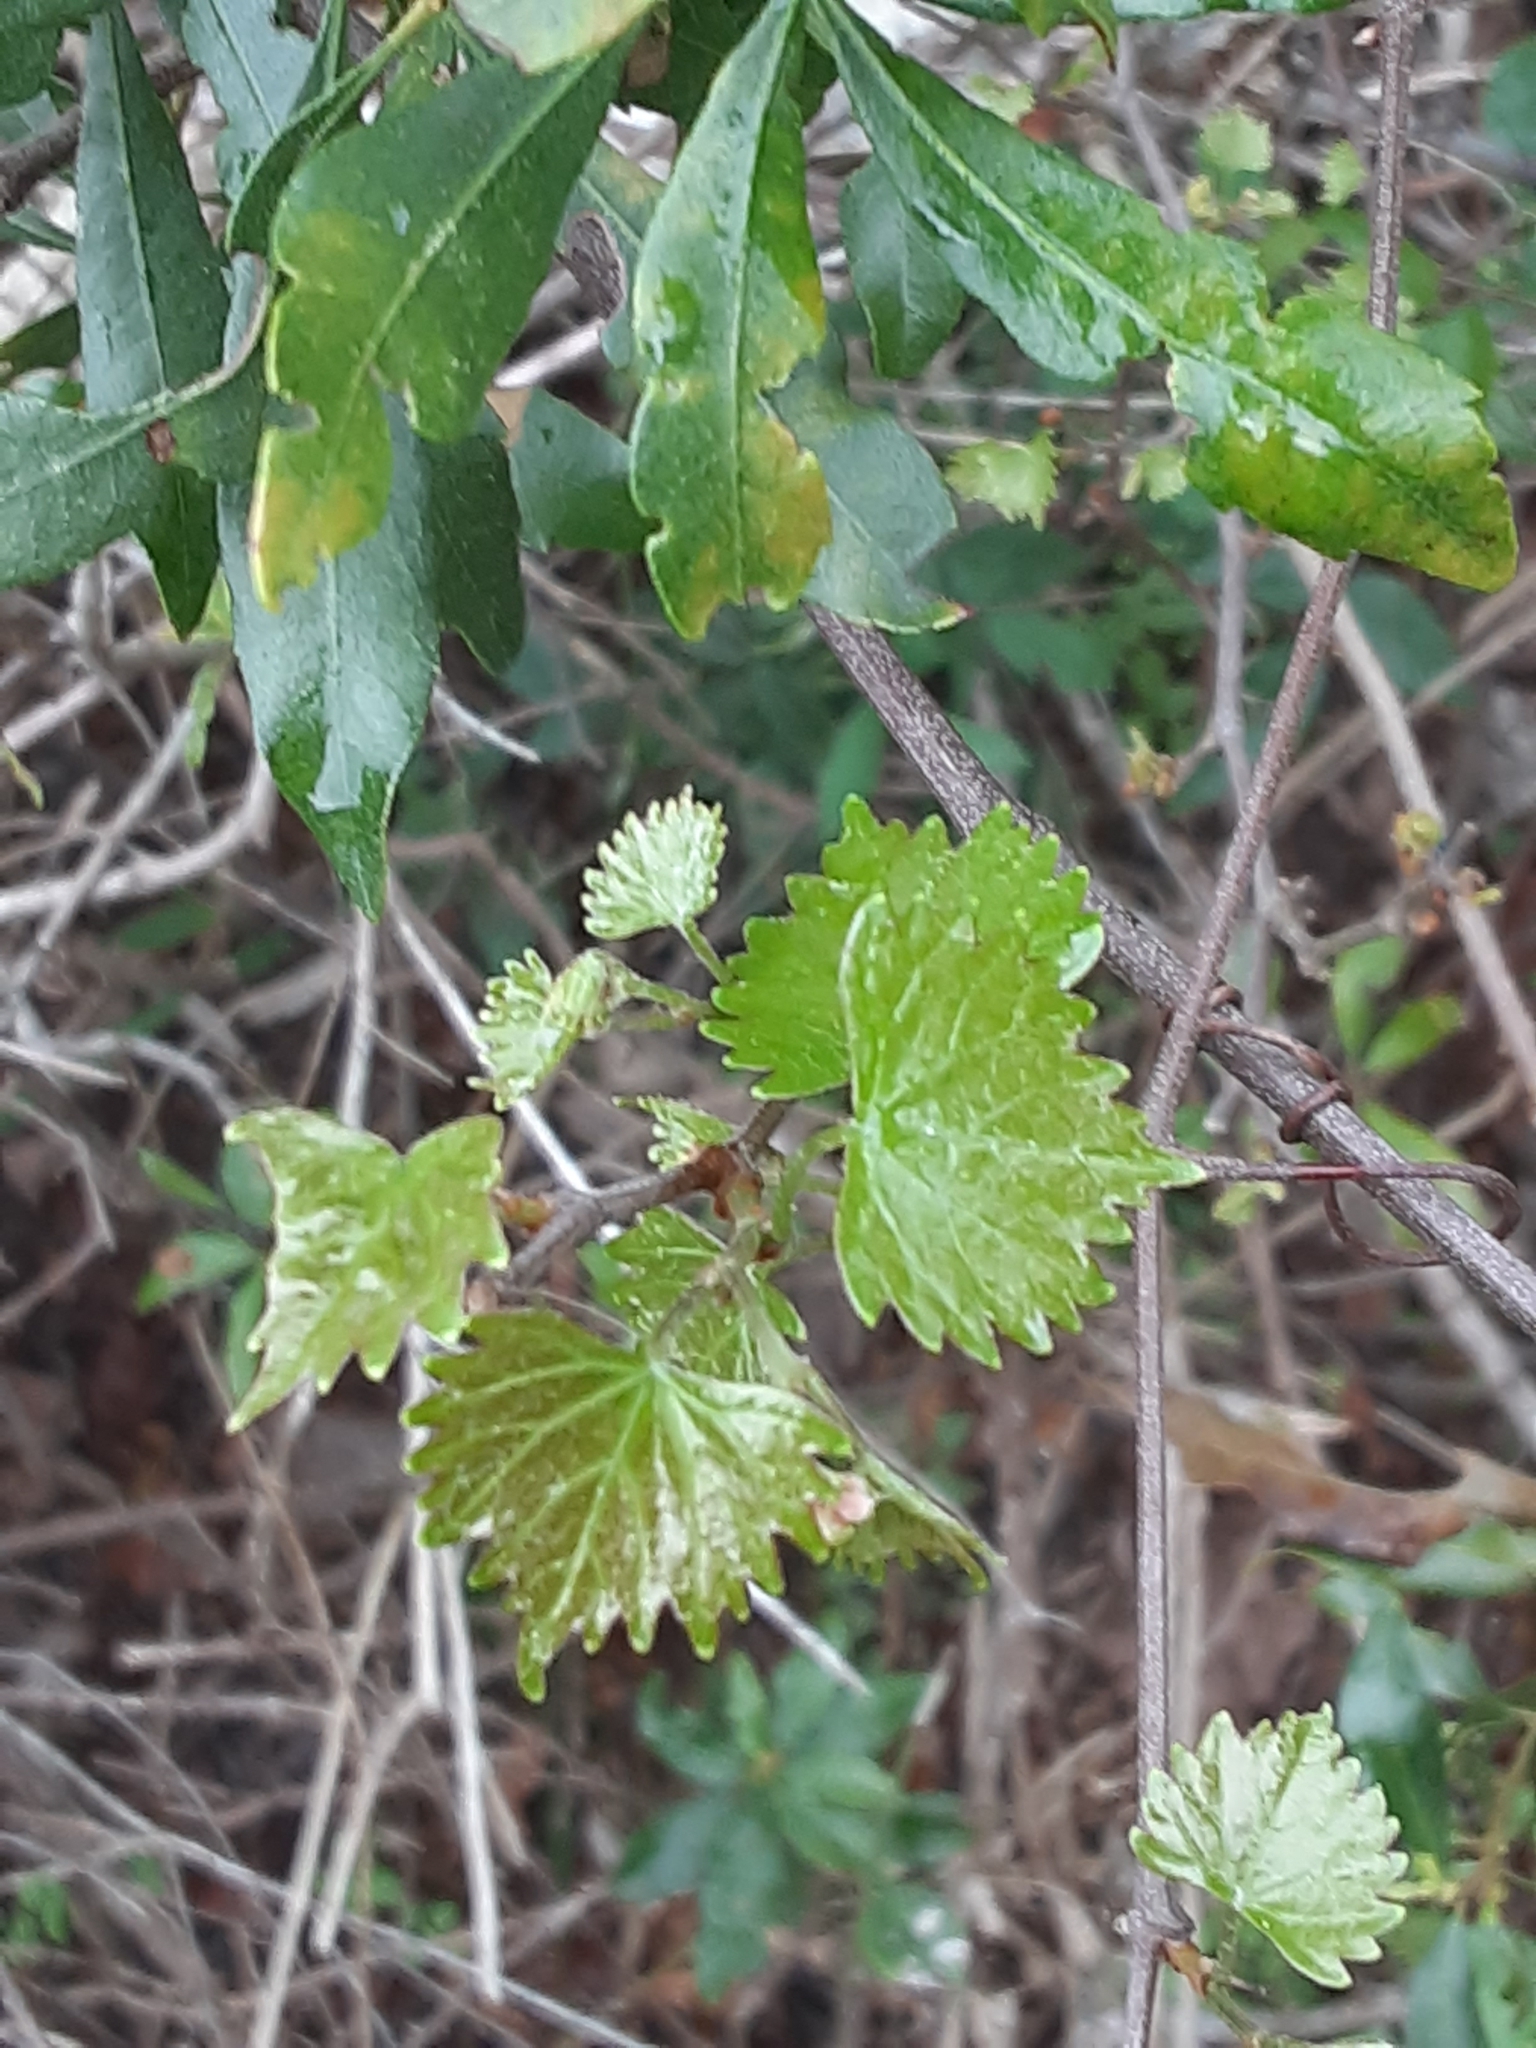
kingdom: Plantae
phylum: Tracheophyta
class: Magnoliopsida
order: Vitales
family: Vitaceae
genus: Vitis
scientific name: Vitis rotundifolia
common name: Muscadine grape
